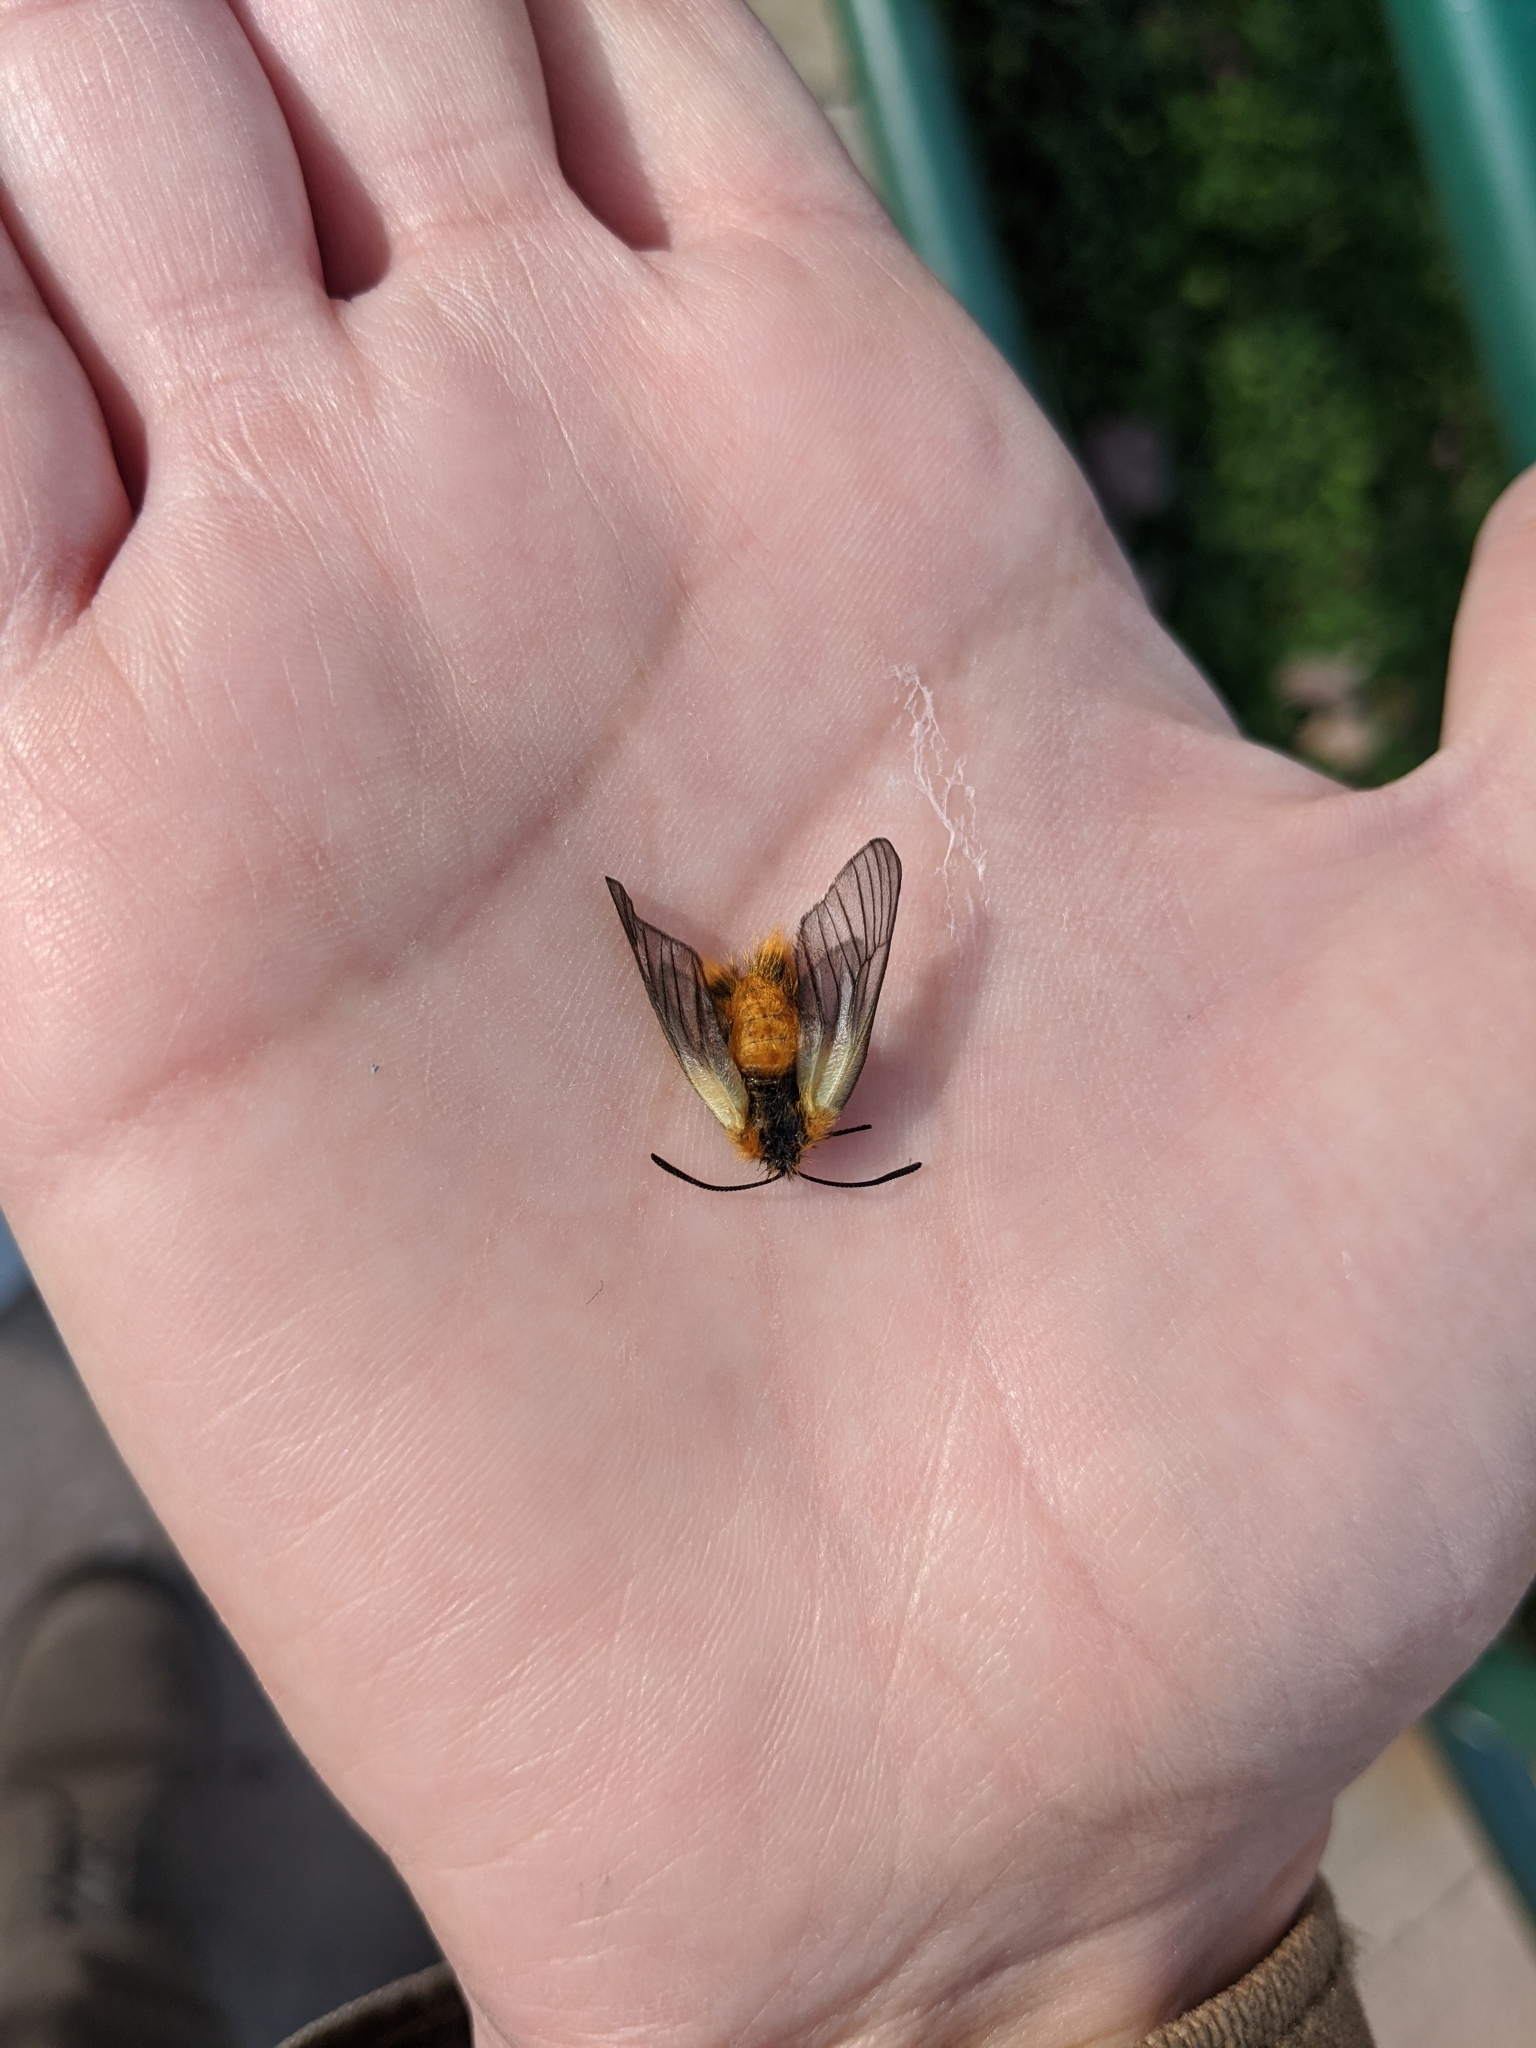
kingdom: Animalia
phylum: Arthropoda
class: Insecta
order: Lepidoptera
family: Zygaenidae
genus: Sinica
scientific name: Sinica sinica
